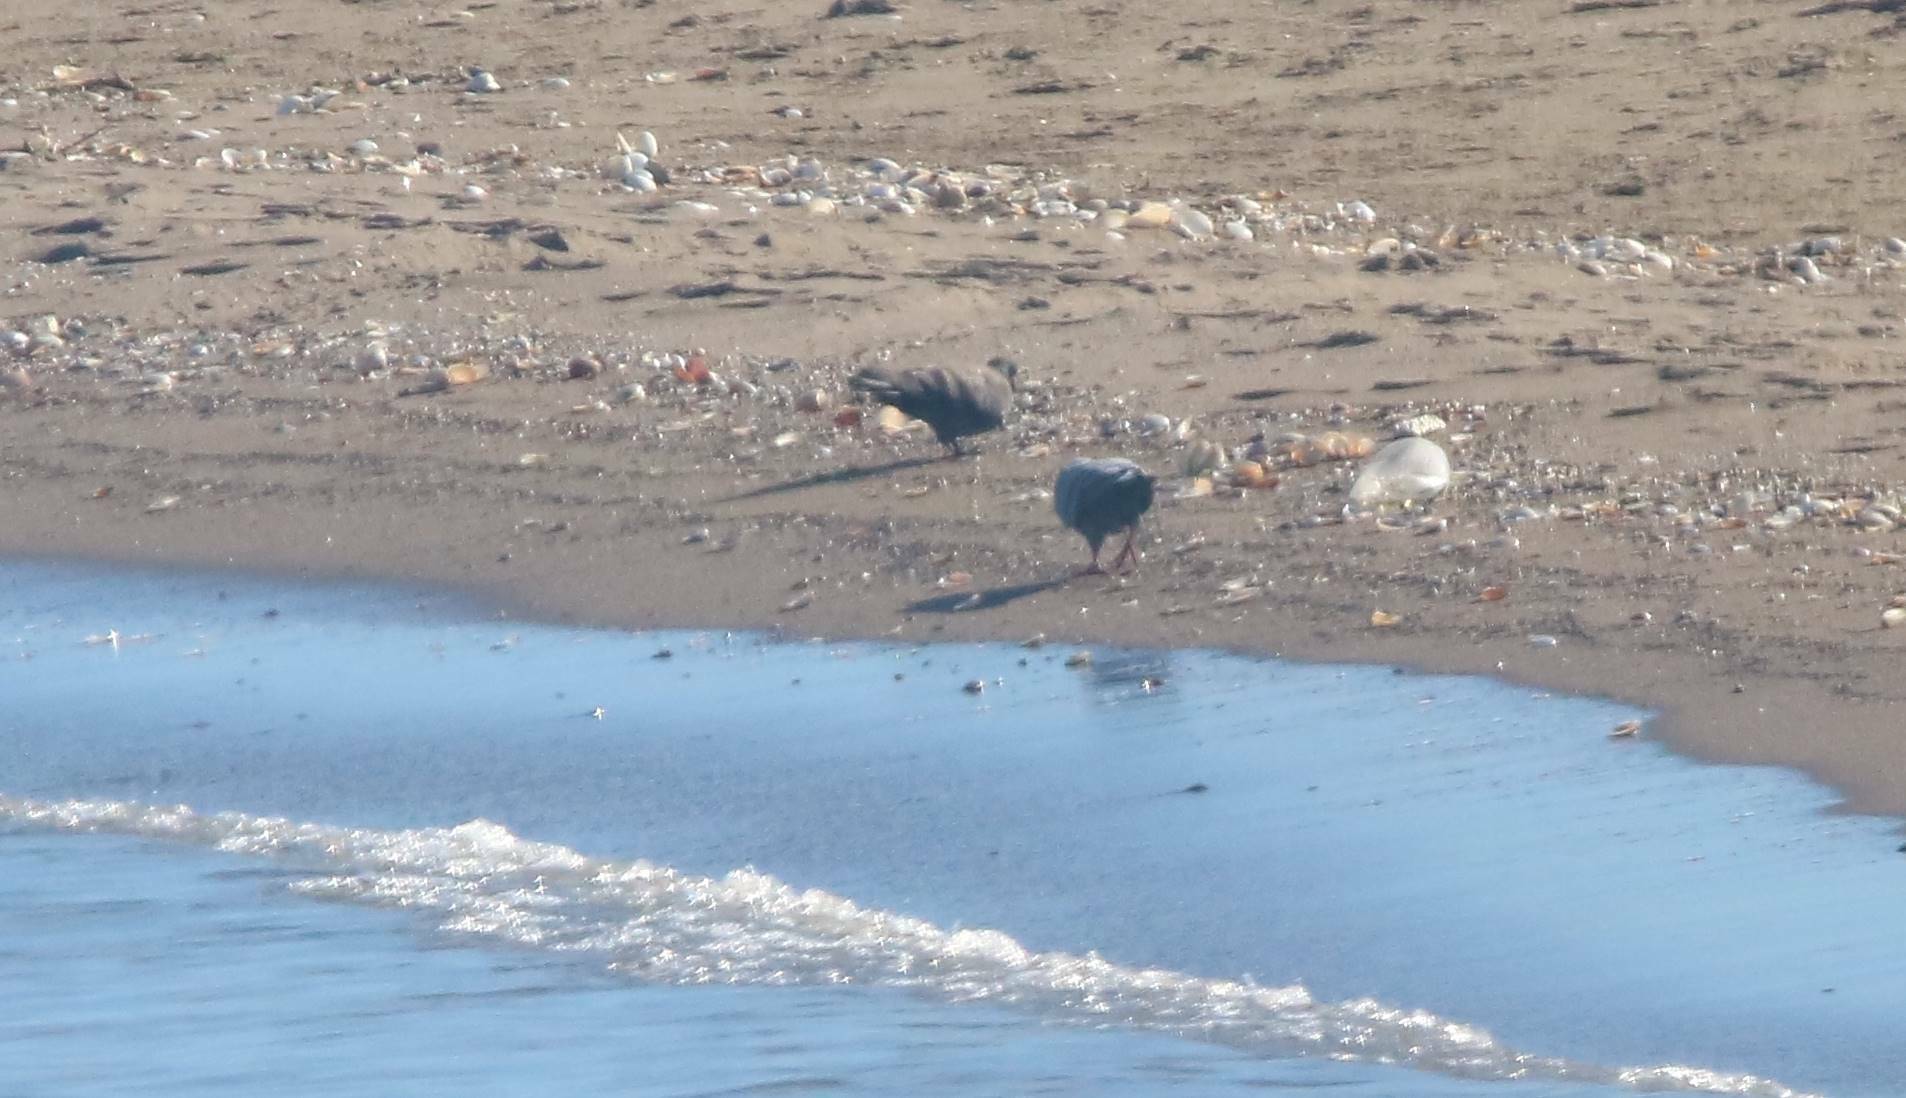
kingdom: Animalia
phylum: Chordata
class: Aves
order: Columbiformes
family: Columbidae
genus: Columba
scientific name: Columba livia
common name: Rock pigeon
